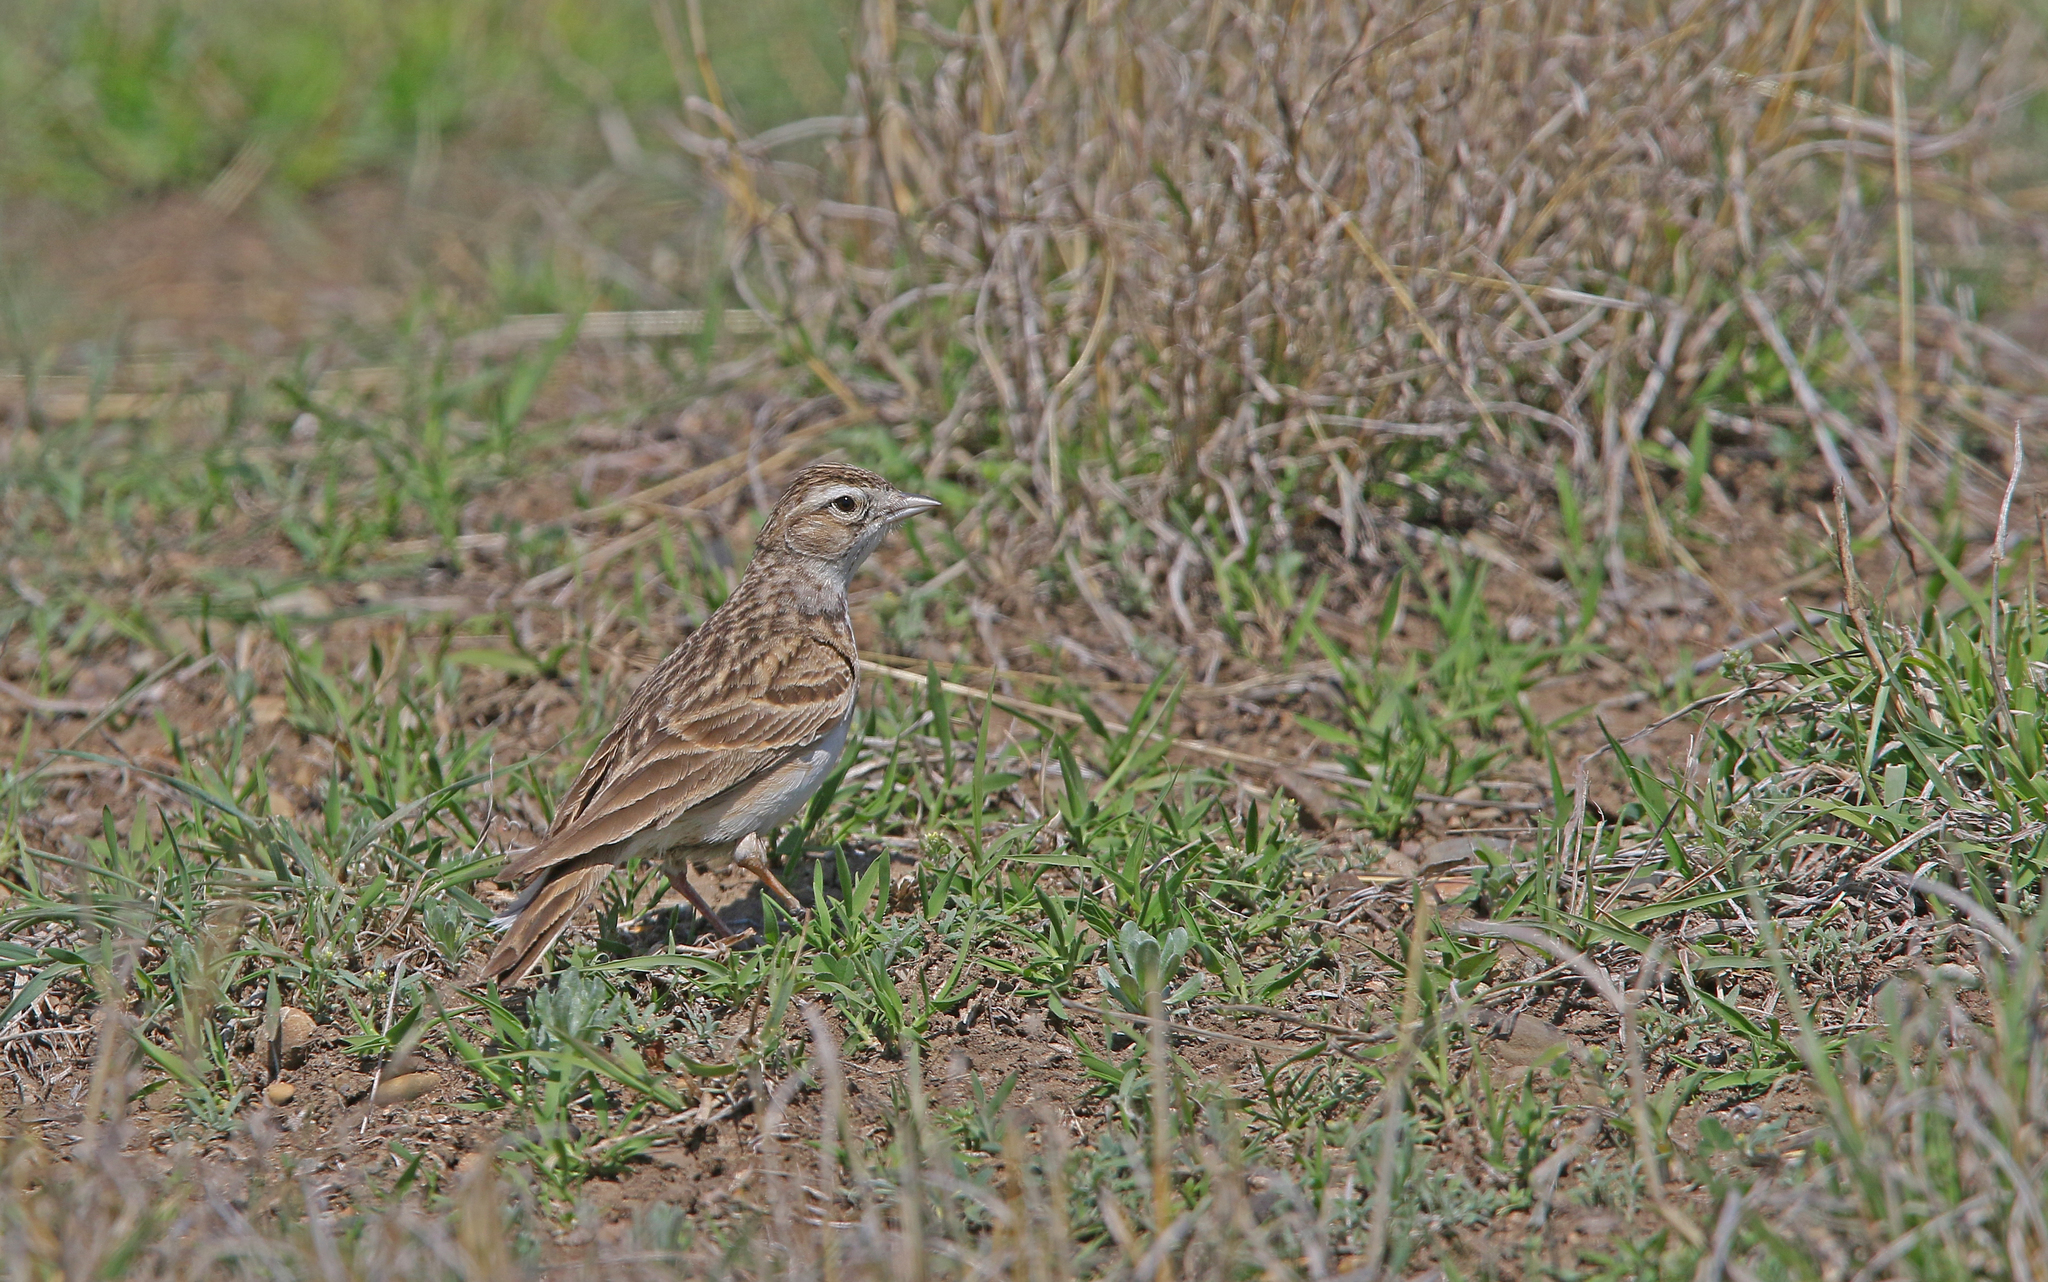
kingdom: Animalia
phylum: Chordata
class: Aves
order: Passeriformes
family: Alaudidae
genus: Calandrella
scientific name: Calandrella brachydactyla
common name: Greater short-toed lark
